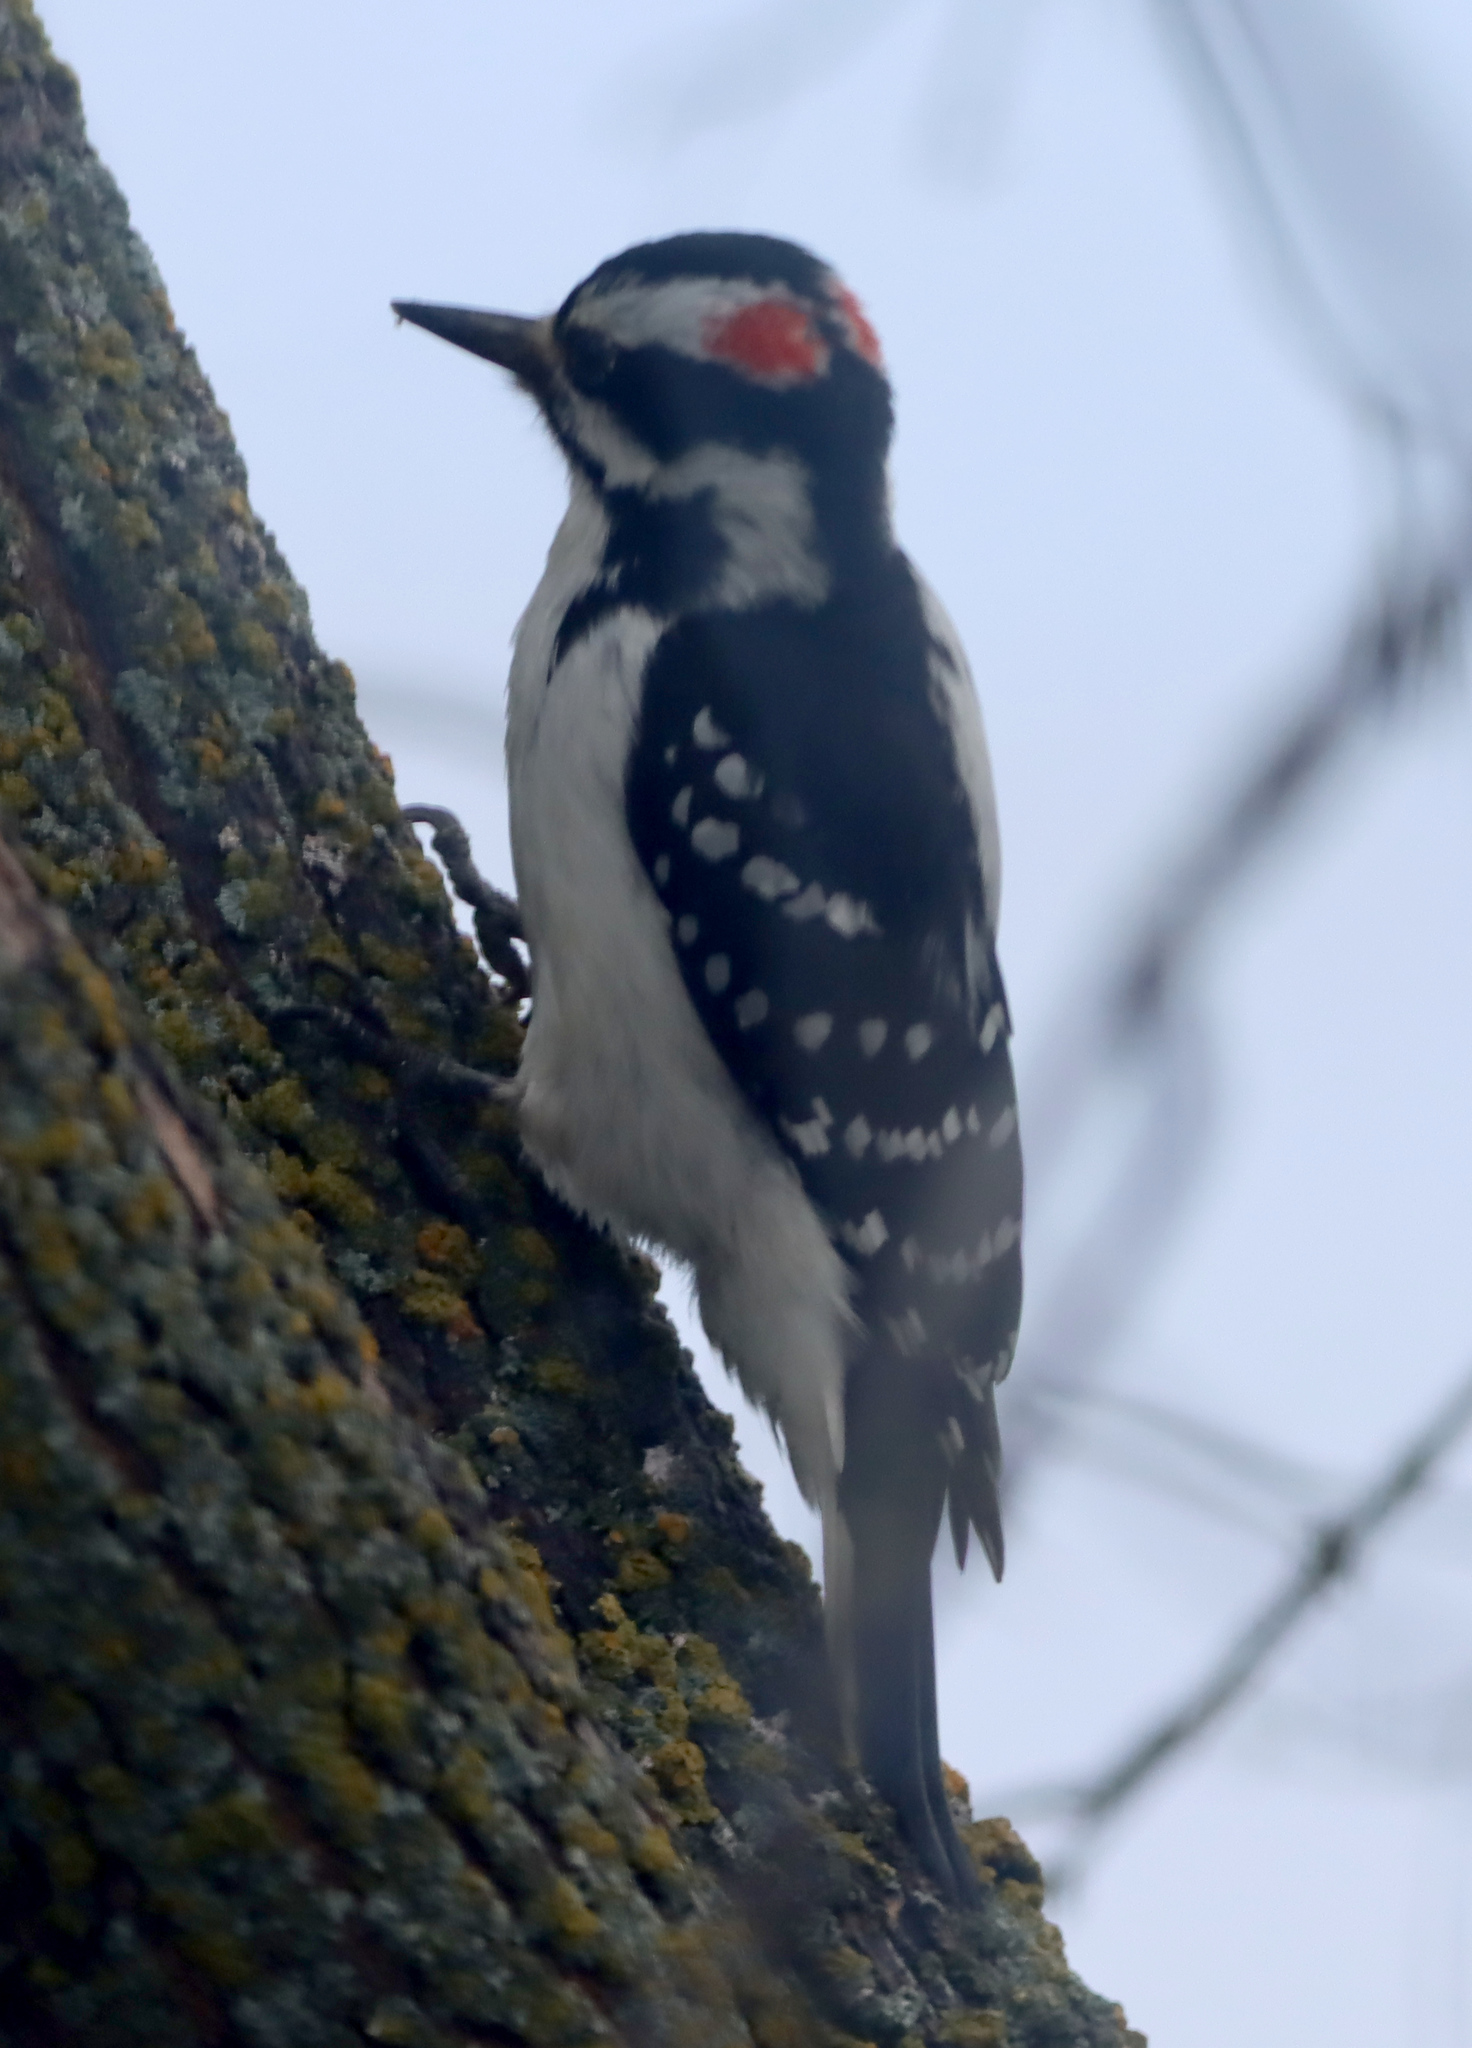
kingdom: Animalia
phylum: Chordata
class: Aves
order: Piciformes
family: Picidae
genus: Leuconotopicus
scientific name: Leuconotopicus villosus
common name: Hairy woodpecker
